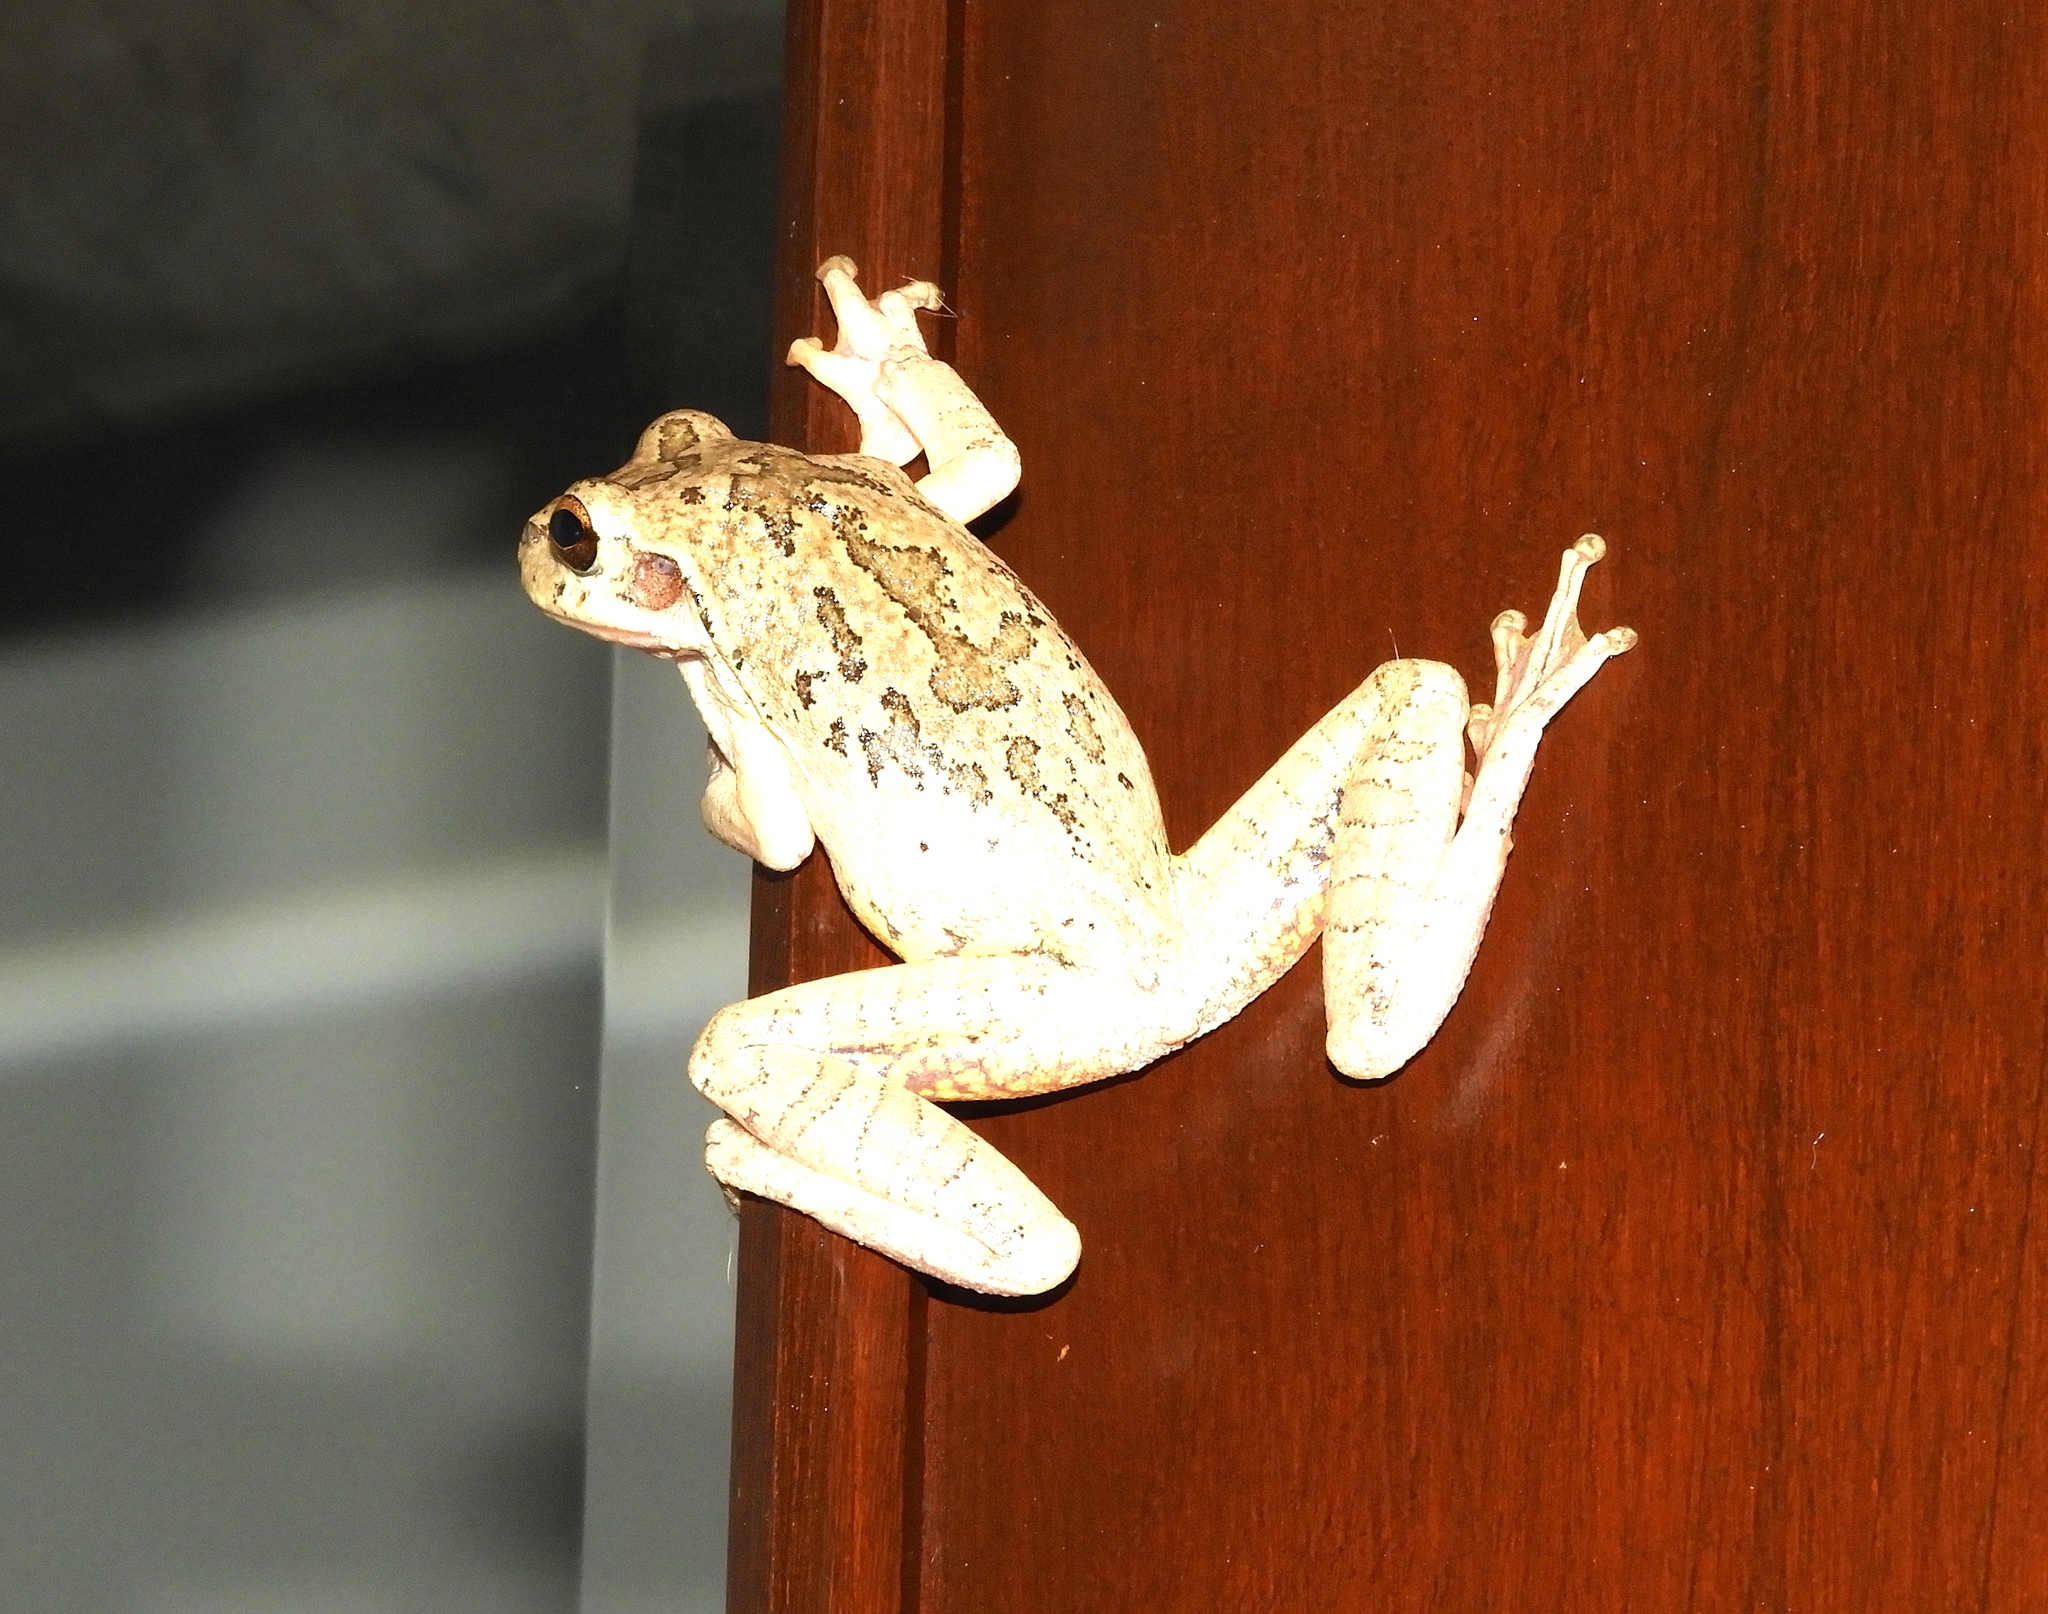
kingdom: Animalia
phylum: Chordata
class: Amphibia
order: Anura
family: Hylidae
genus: Smilisca
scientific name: Smilisca baudinii
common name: Mexican smilisca
